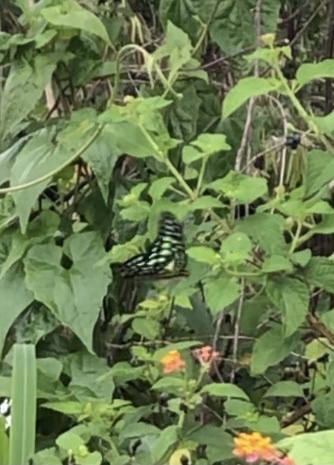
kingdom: Animalia
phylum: Arthropoda
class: Insecta
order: Lepidoptera
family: Papilionidae
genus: Graphium
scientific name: Graphium agamemnon
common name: Tailed jay
